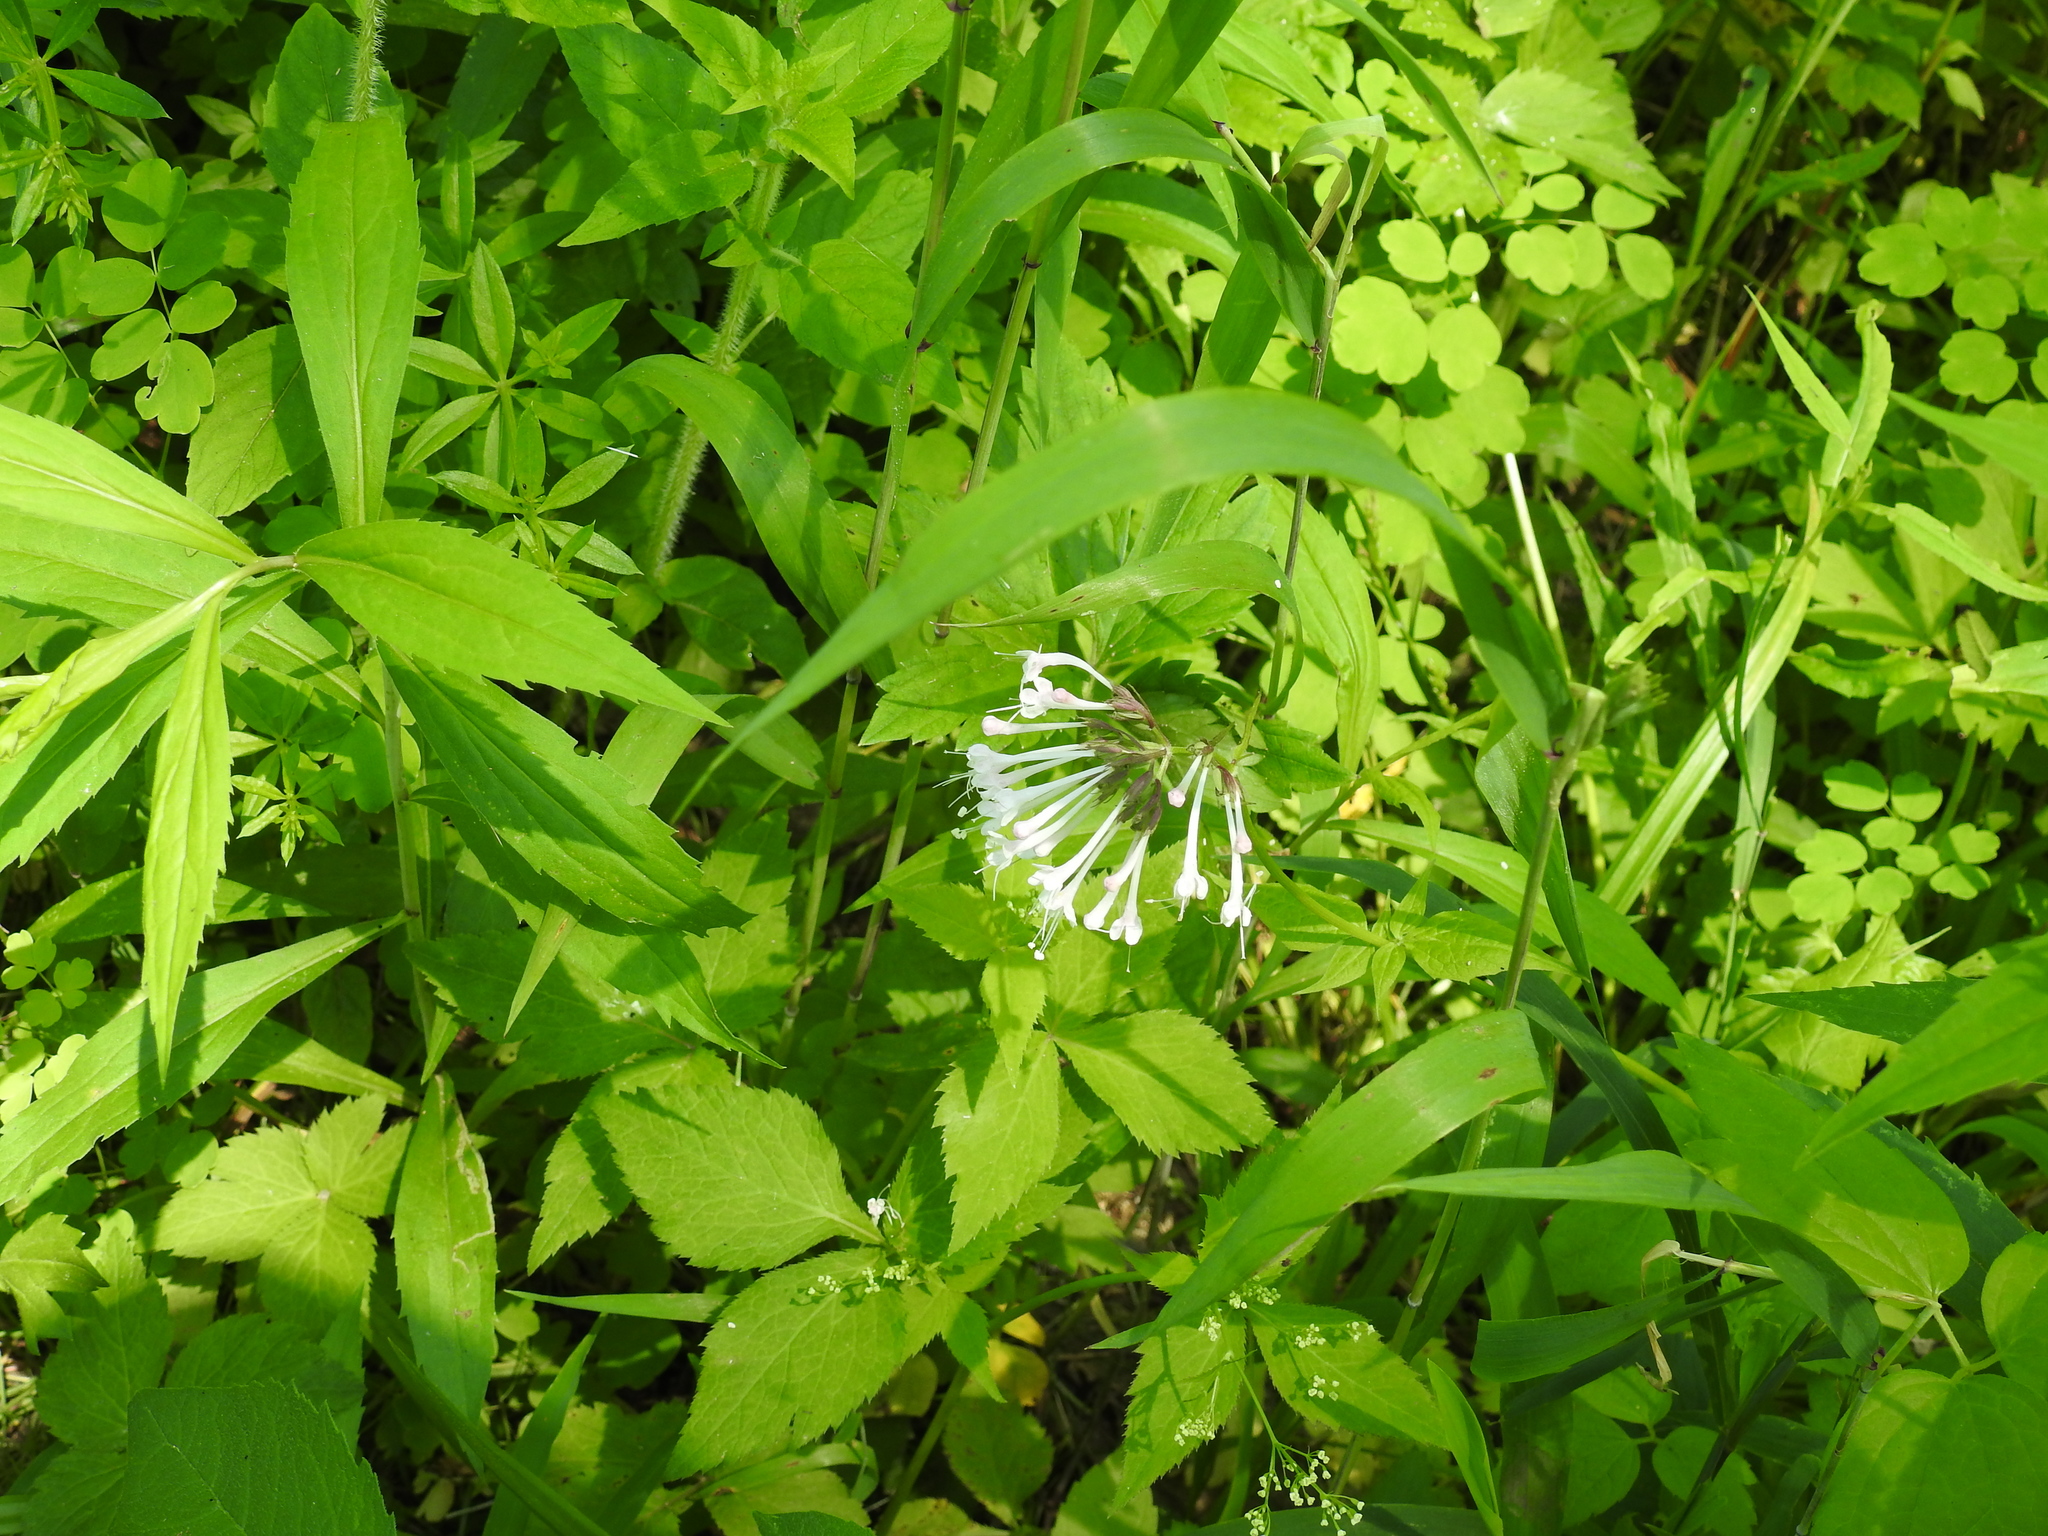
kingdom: Plantae
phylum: Tracheophyta
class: Magnoliopsida
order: Dipsacales
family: Caprifoliaceae
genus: Valeriana
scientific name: Valeriana pauciflora
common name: Long-tube valeriana
